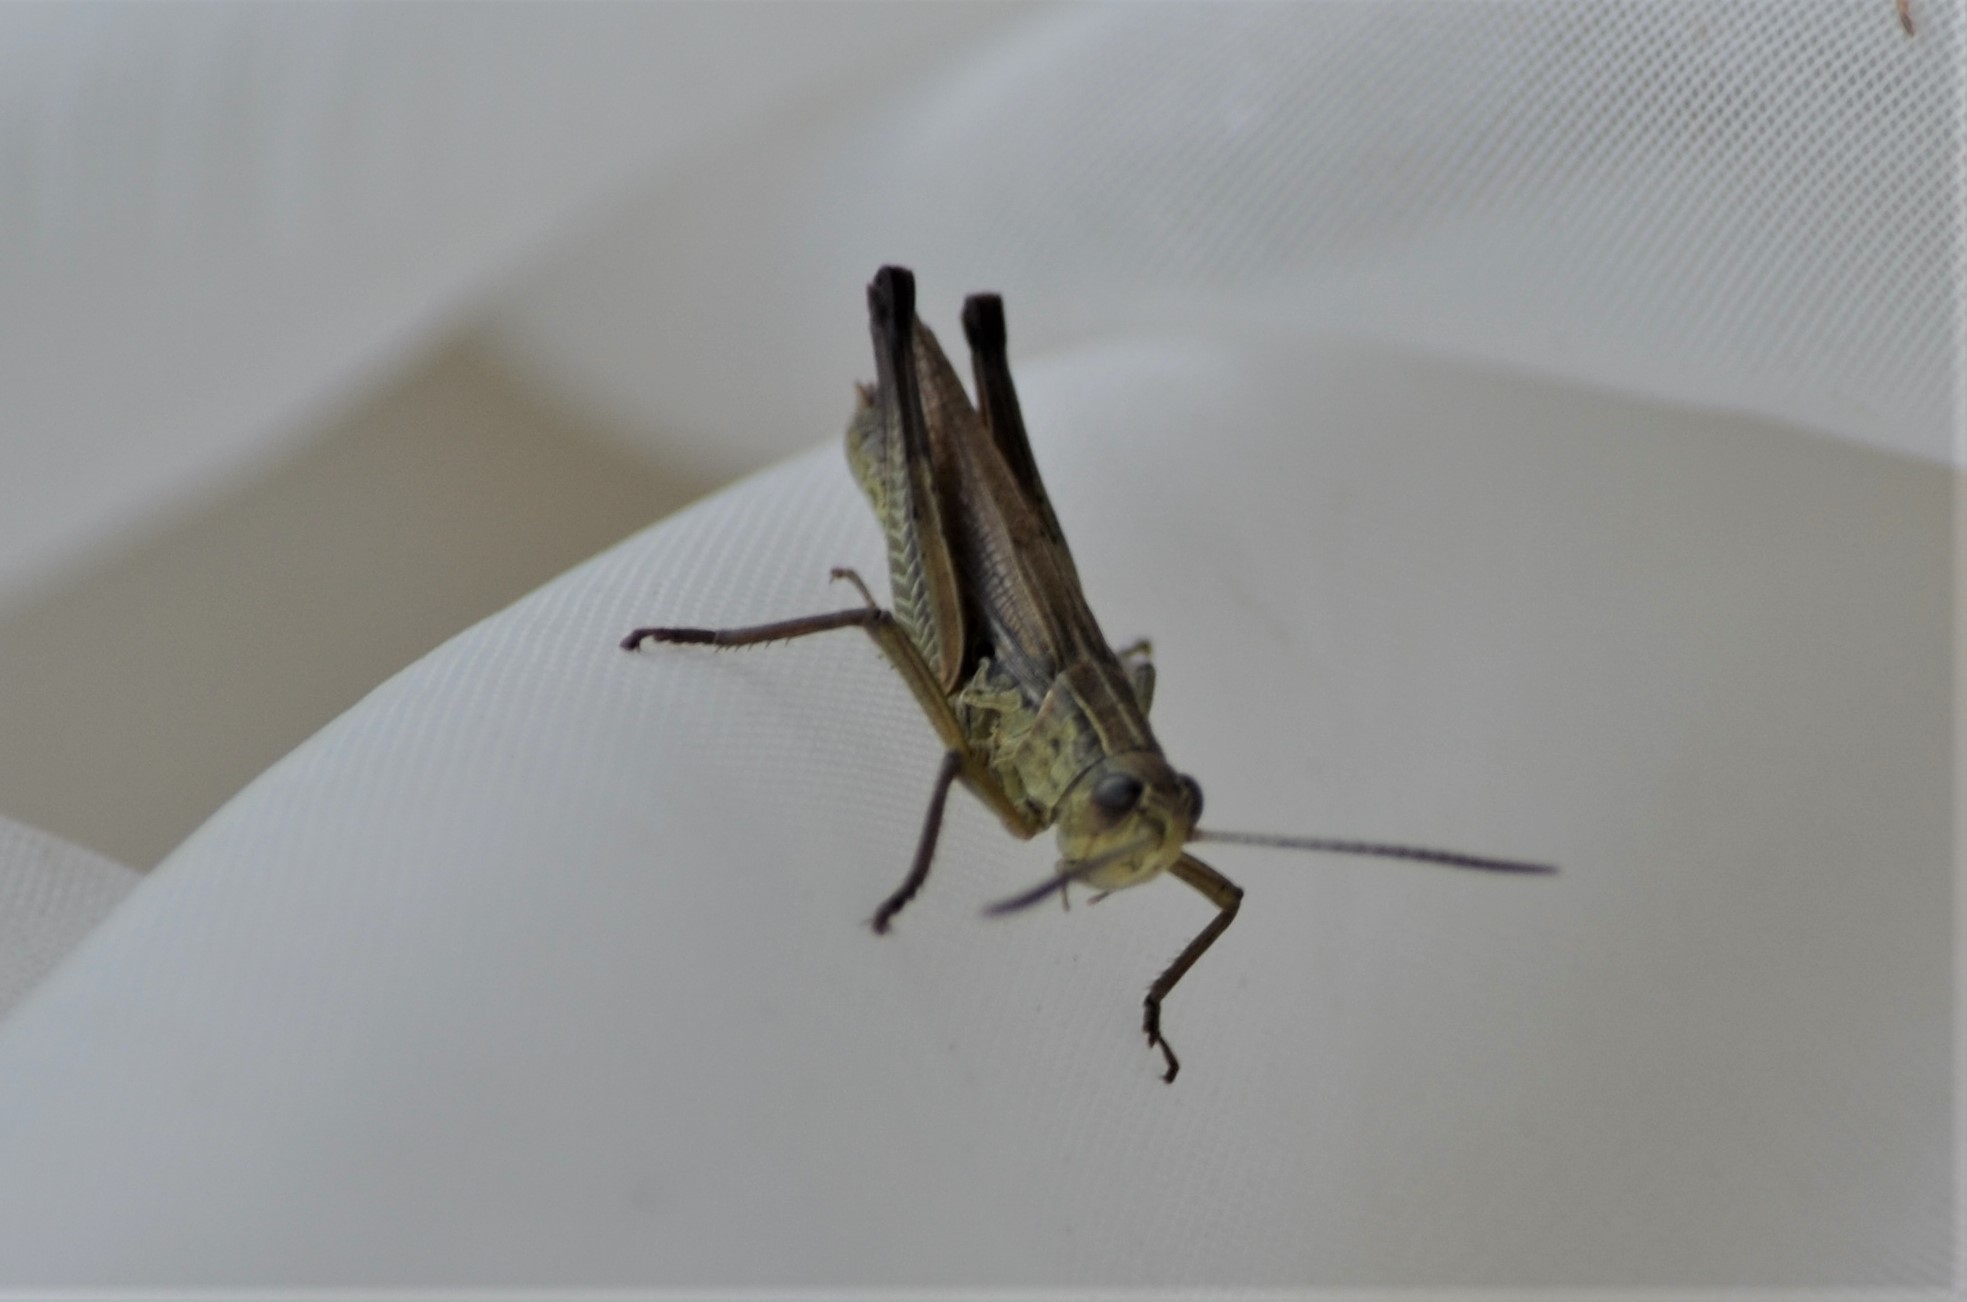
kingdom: Animalia
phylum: Arthropoda
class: Insecta
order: Orthoptera
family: Acrididae
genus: Chorthippus
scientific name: Chorthippus dorsatus
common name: Steppe grasshopper
